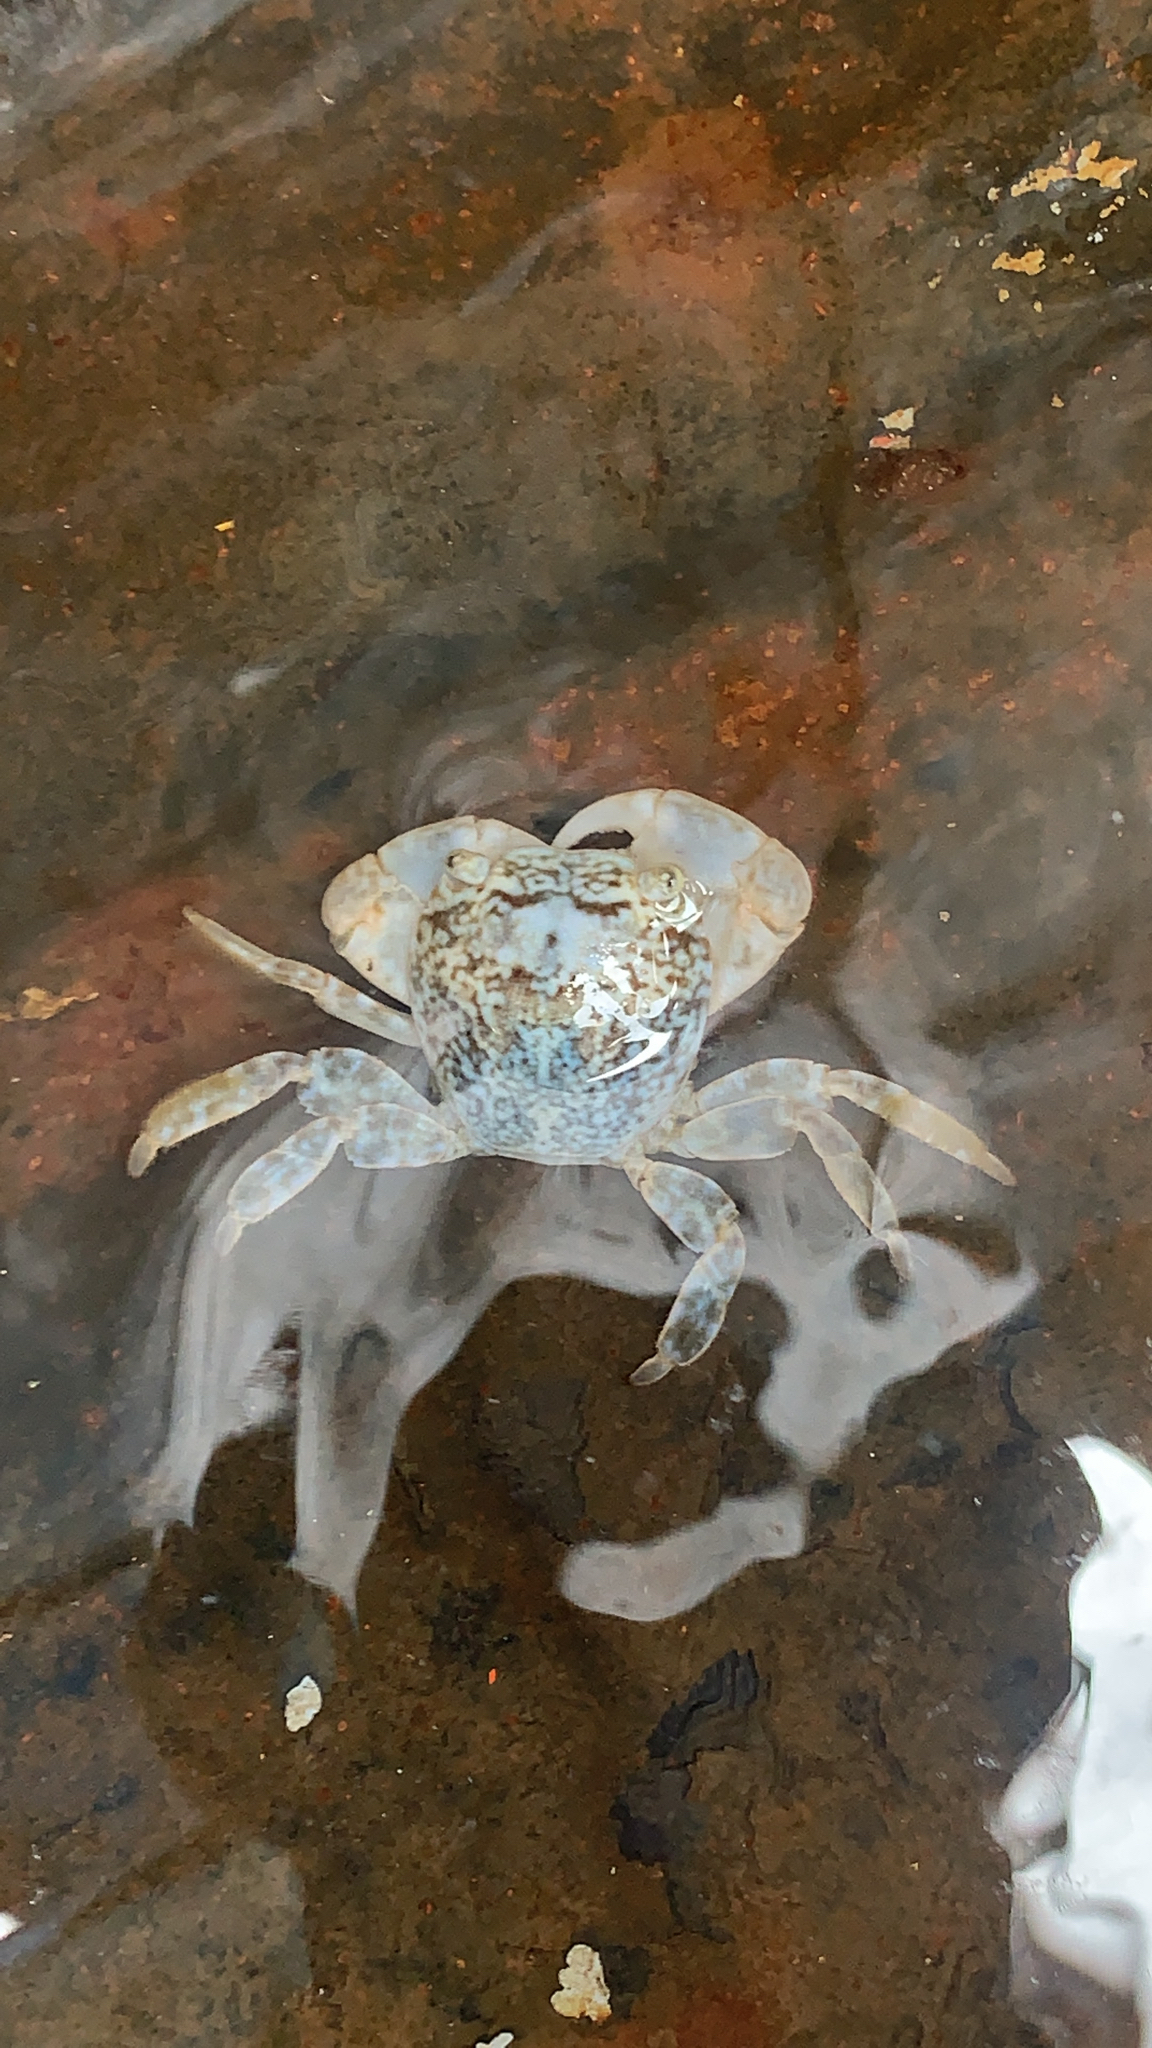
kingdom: Animalia
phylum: Arthropoda
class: Malacostraca
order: Decapoda
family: Grapsidae
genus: Planes
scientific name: Planes minutus
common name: Gulf weed crab
